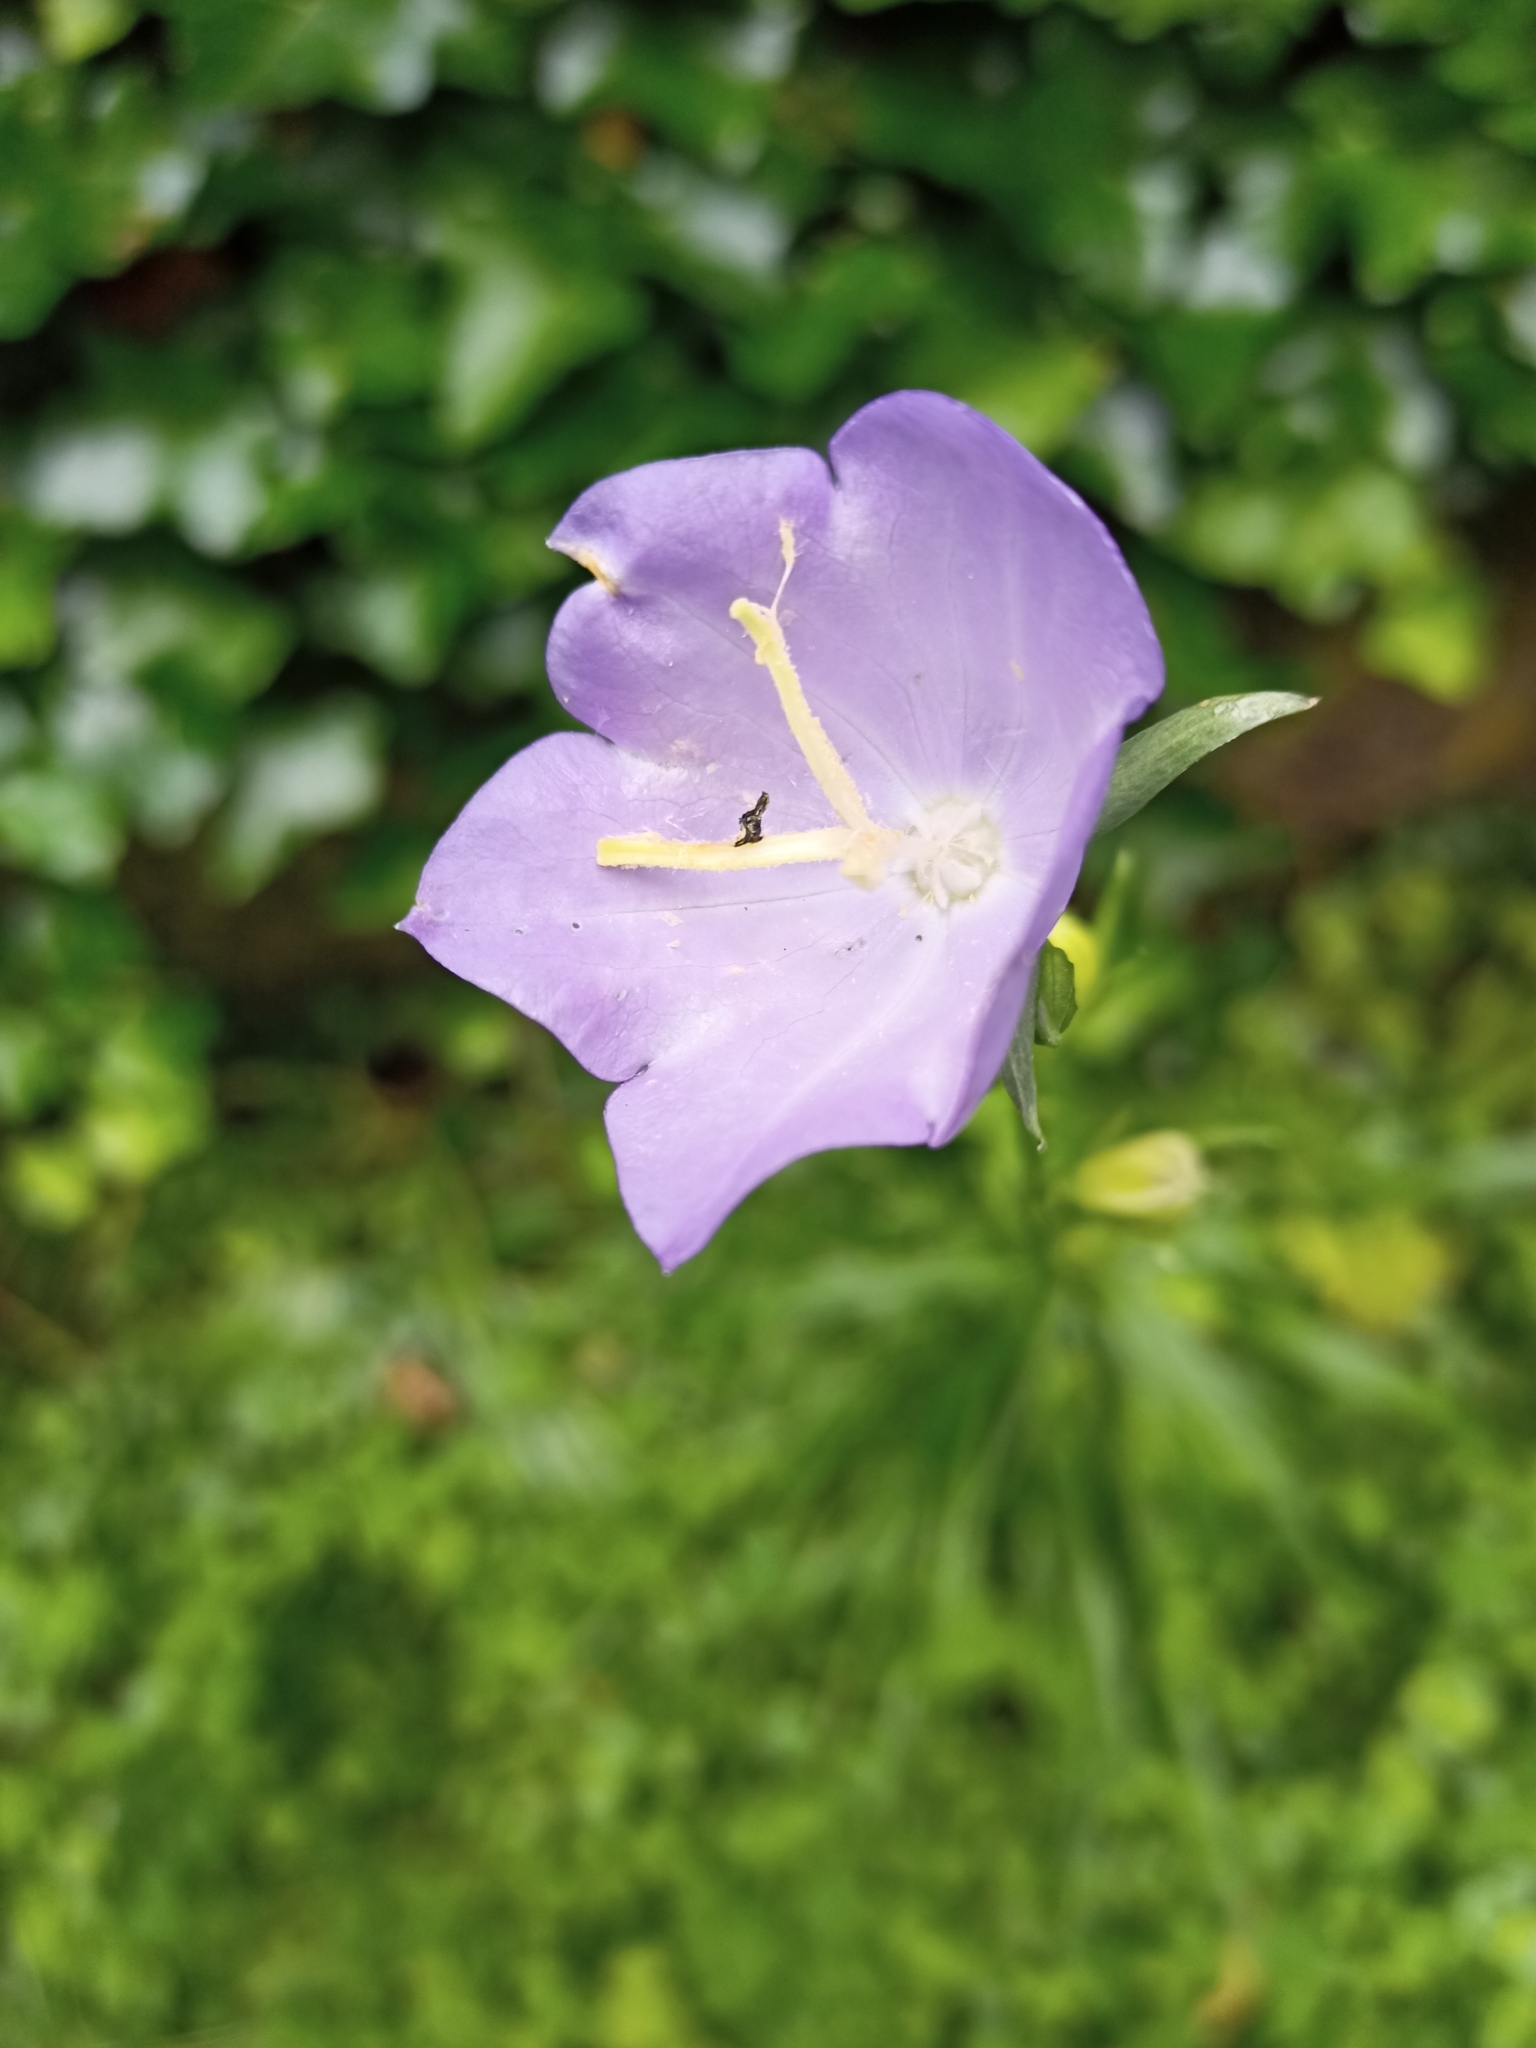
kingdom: Plantae
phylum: Tracheophyta
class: Magnoliopsida
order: Asterales
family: Campanulaceae
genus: Campanula
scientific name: Campanula persicifolia
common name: Peach-leaved bellflower
